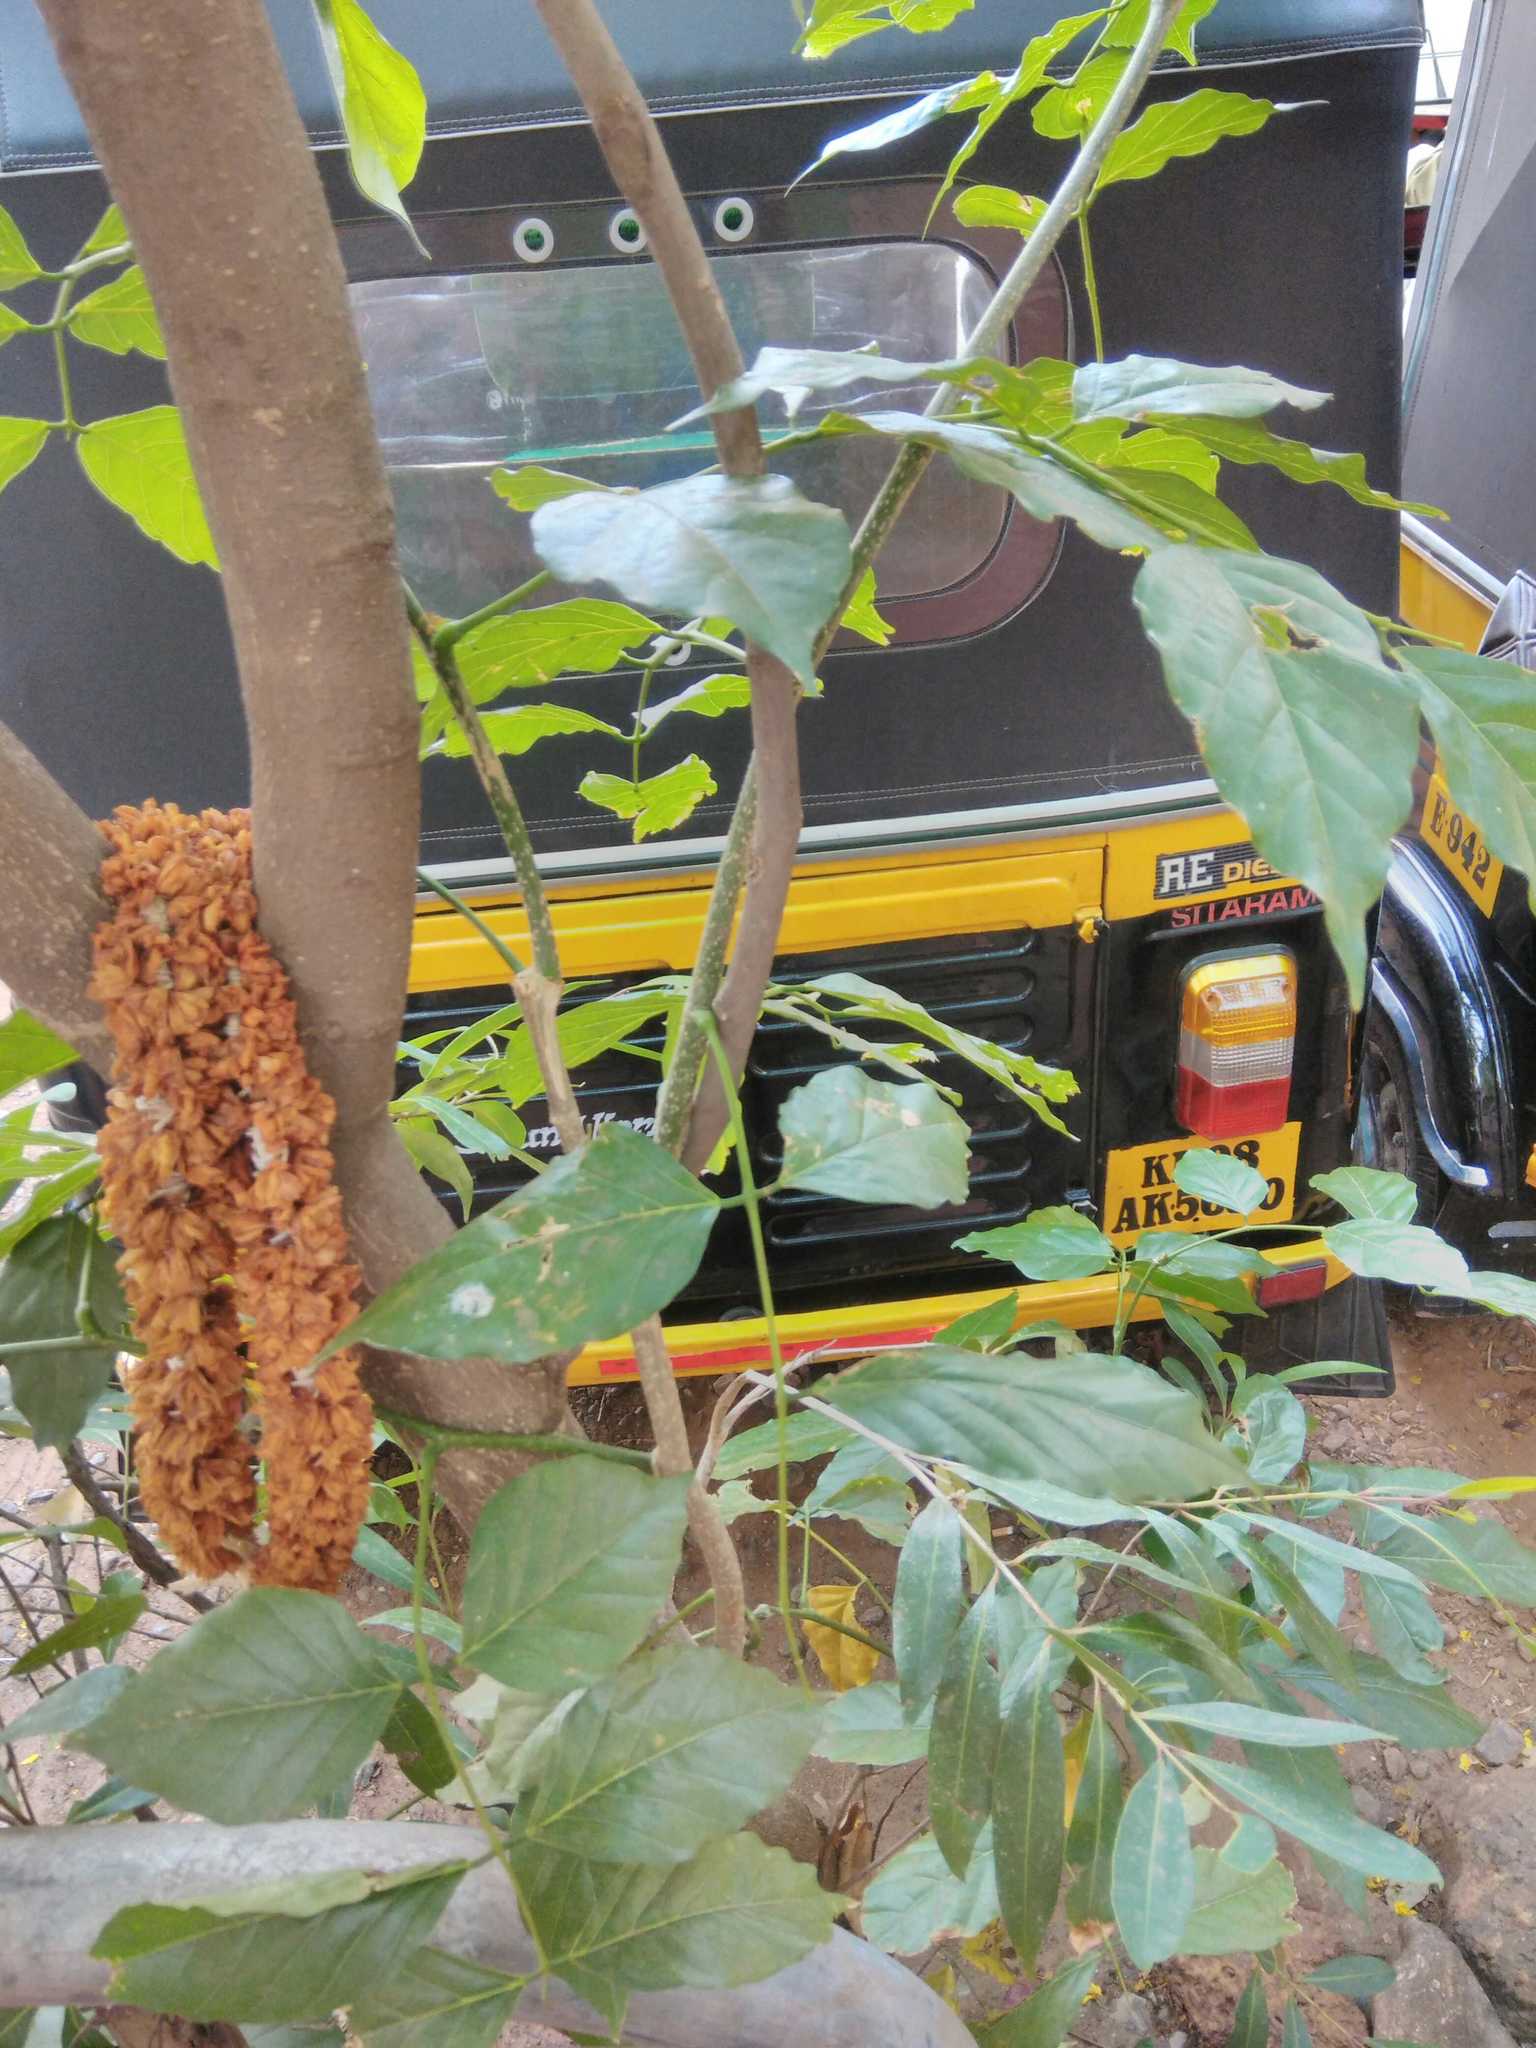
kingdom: Plantae
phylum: Tracheophyta
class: Magnoliopsida
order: Fabales
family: Fabaceae
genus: Pongamia
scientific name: Pongamia pinnata
